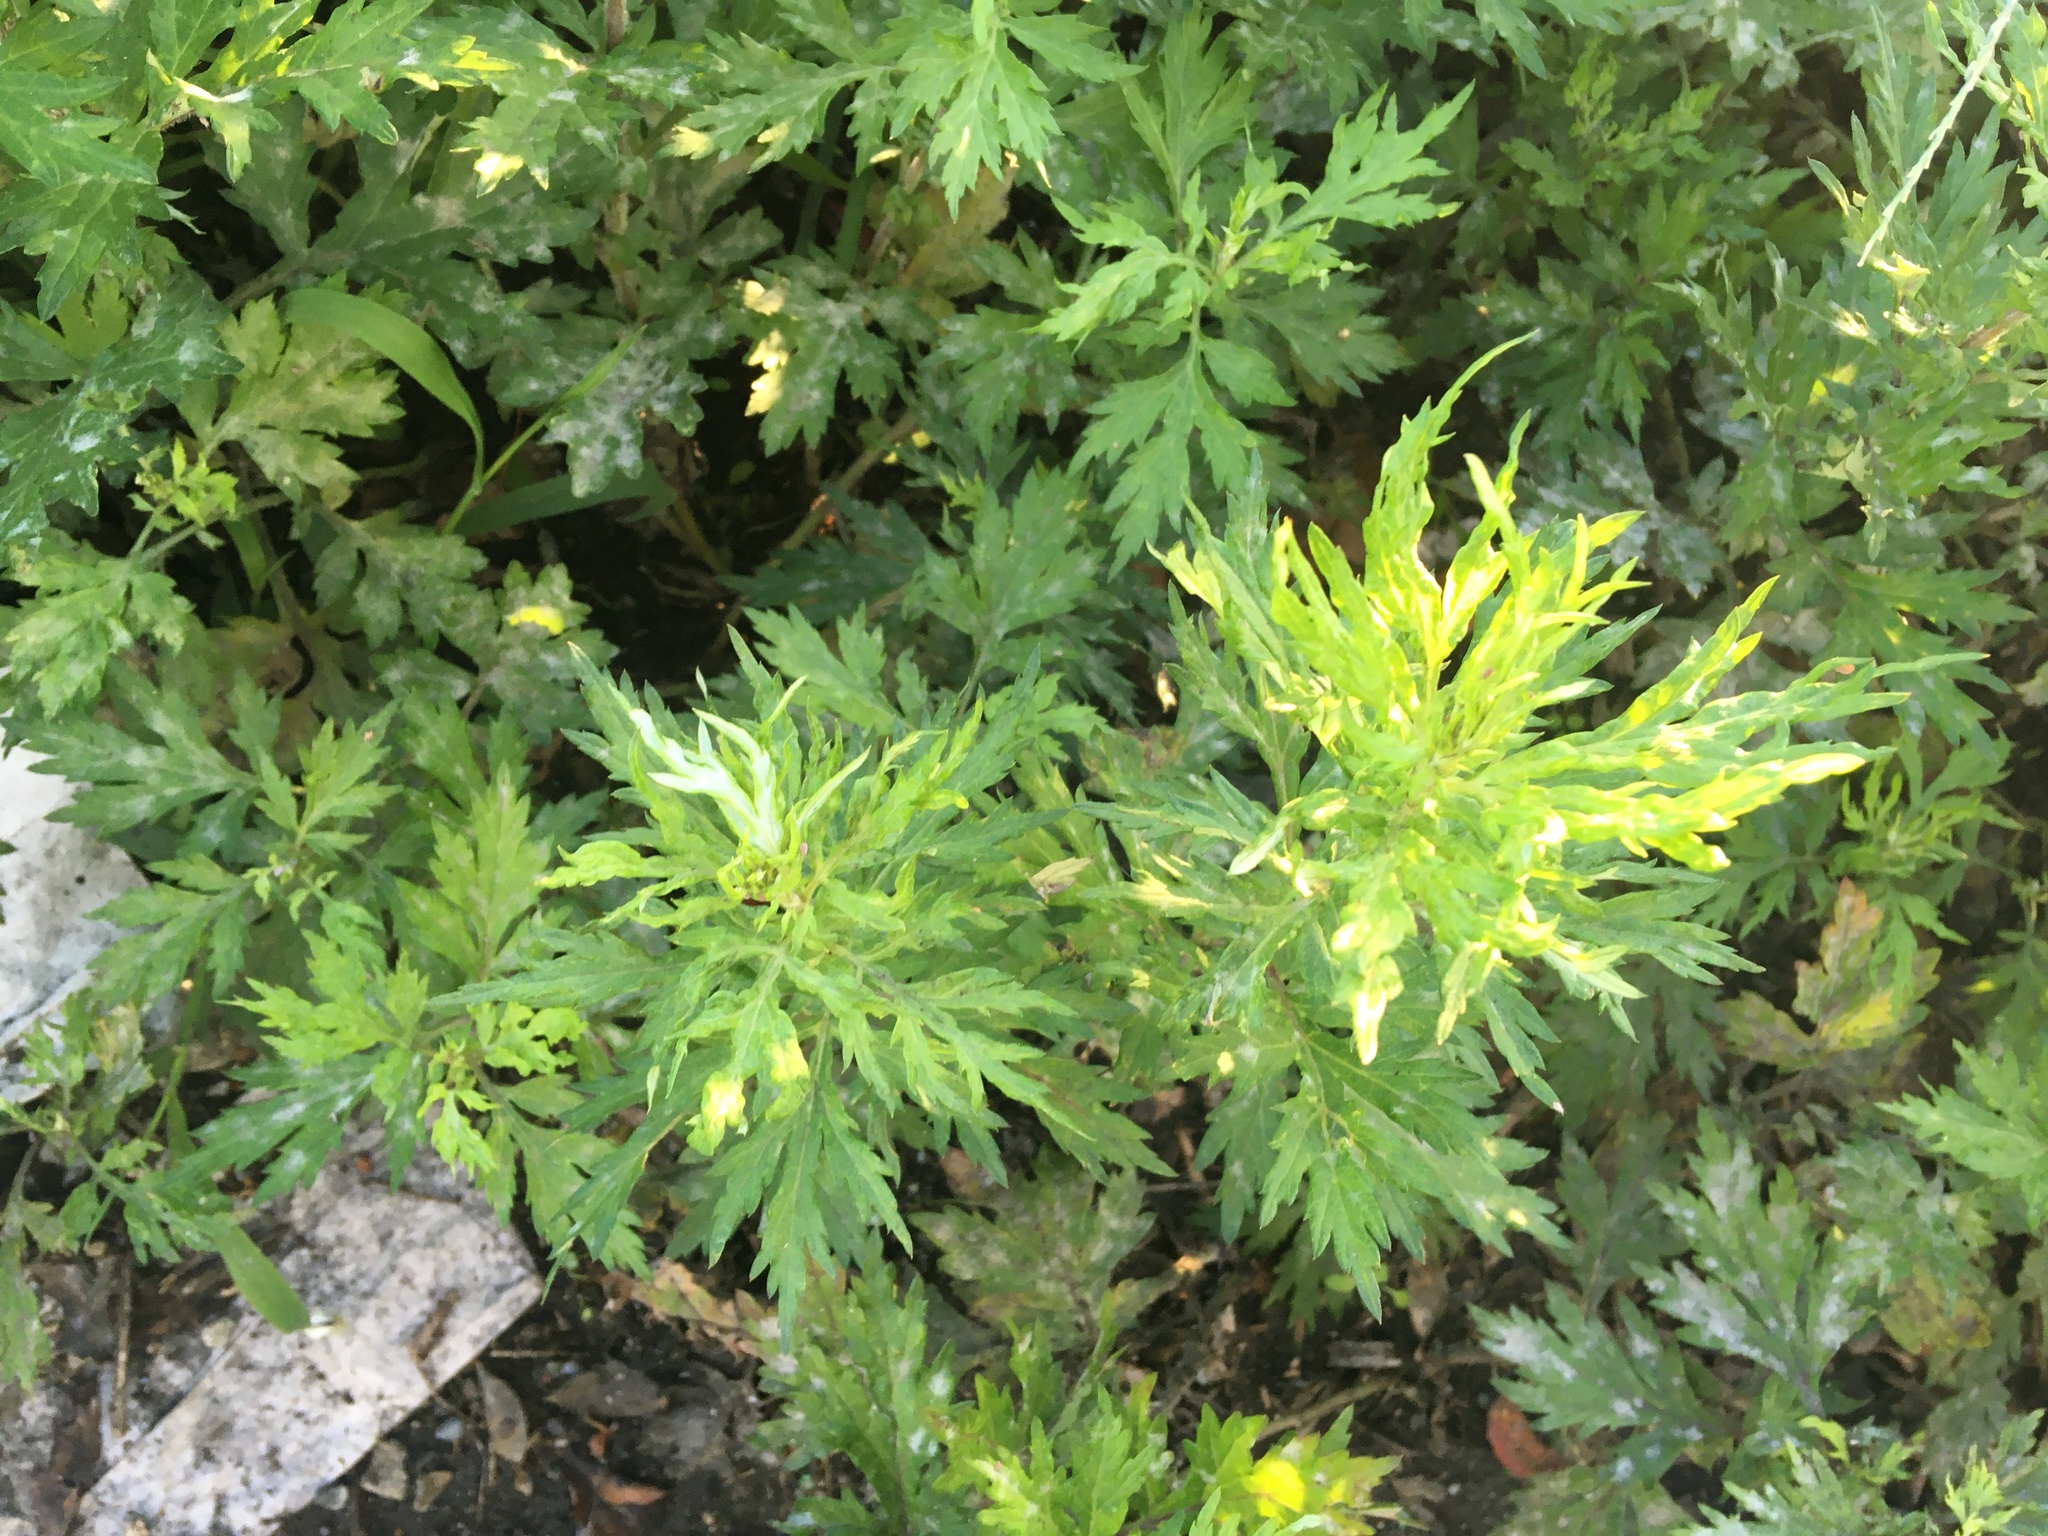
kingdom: Plantae
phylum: Tracheophyta
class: Magnoliopsida
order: Asterales
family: Asteraceae
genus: Artemisia
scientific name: Artemisia vulgaris
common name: Mugwort
